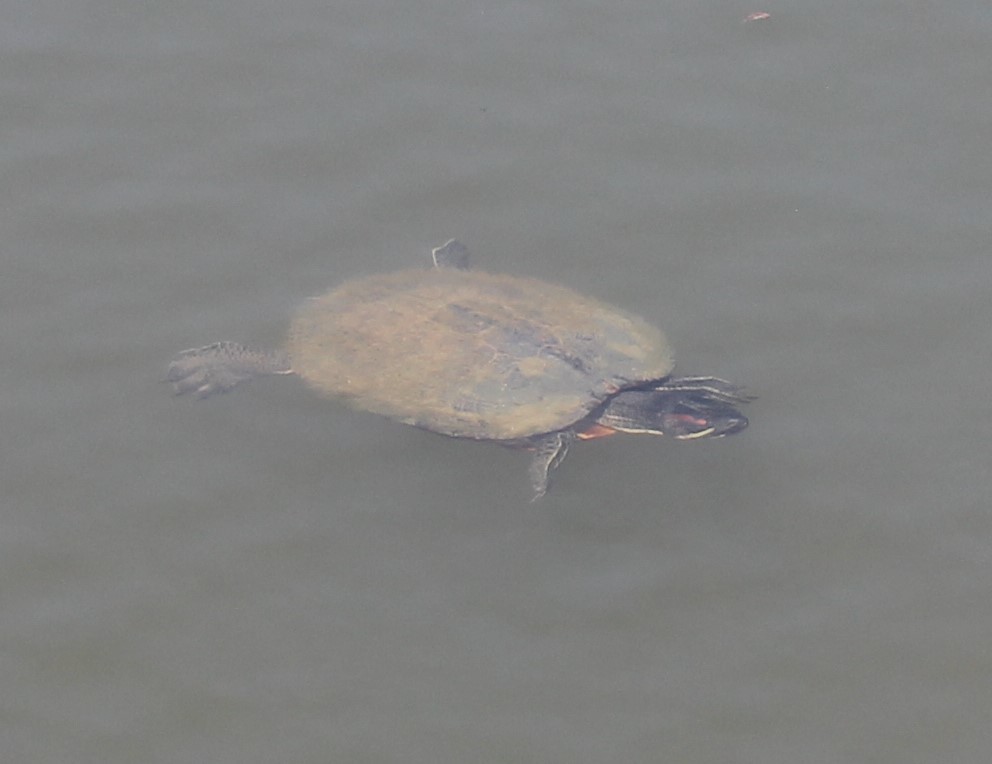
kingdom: Animalia
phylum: Chordata
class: Testudines
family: Emydidae
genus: Trachemys
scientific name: Trachemys scripta
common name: Slider
